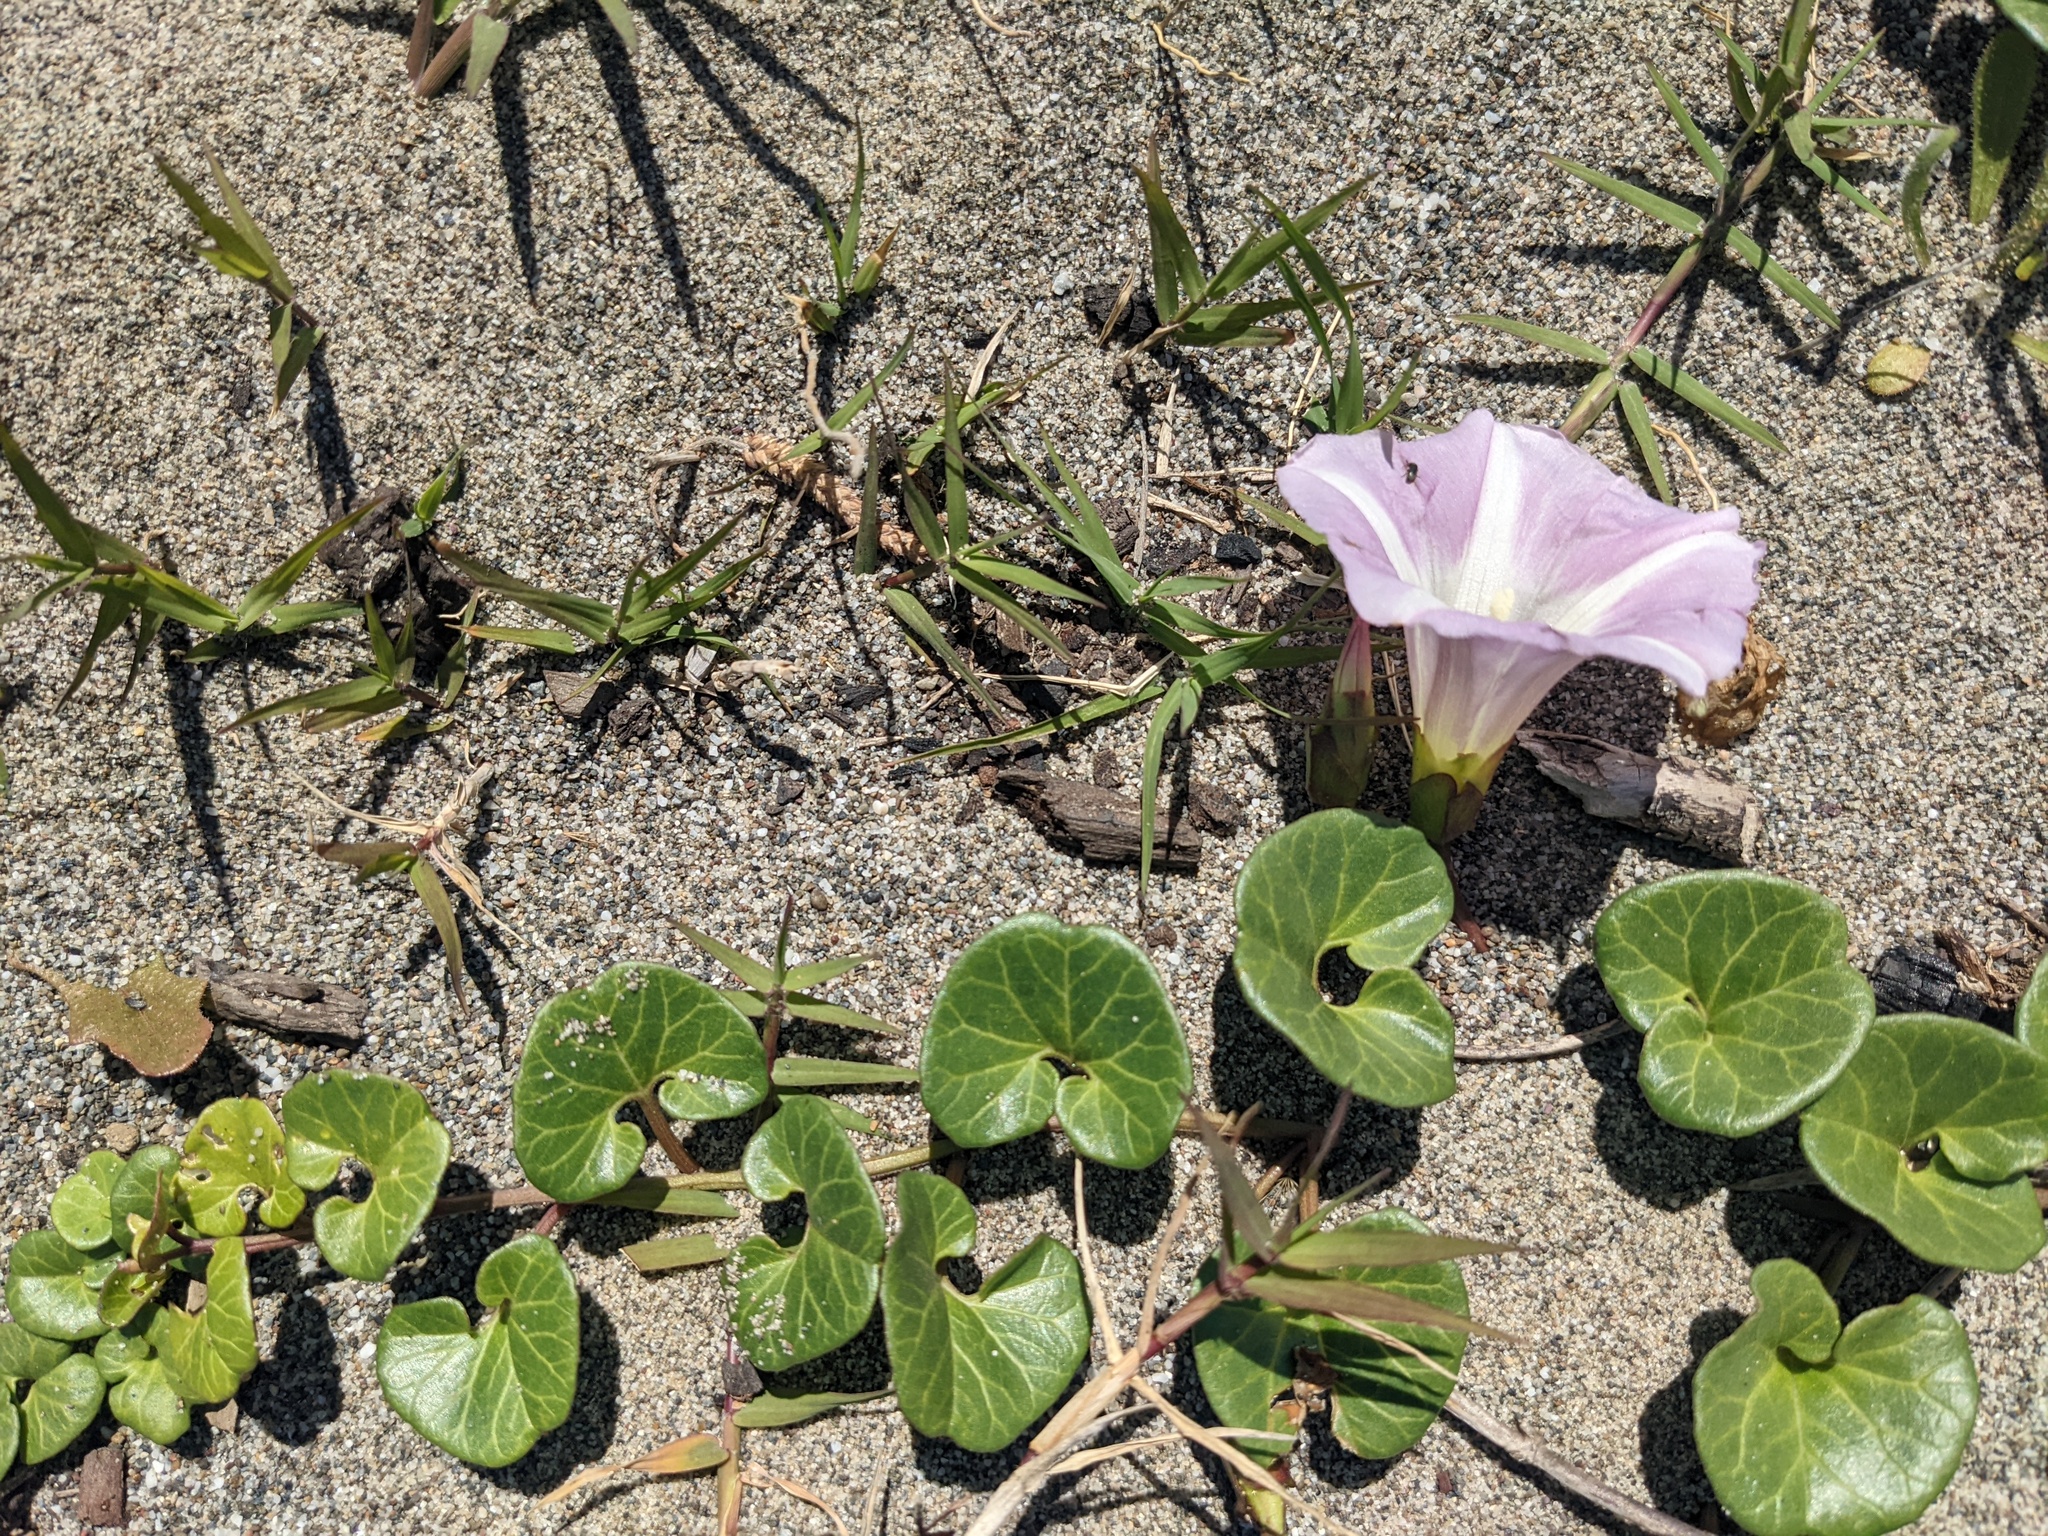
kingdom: Plantae
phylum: Tracheophyta
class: Magnoliopsida
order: Solanales
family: Convolvulaceae
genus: Calystegia
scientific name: Calystegia soldanella
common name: Sea bindweed
